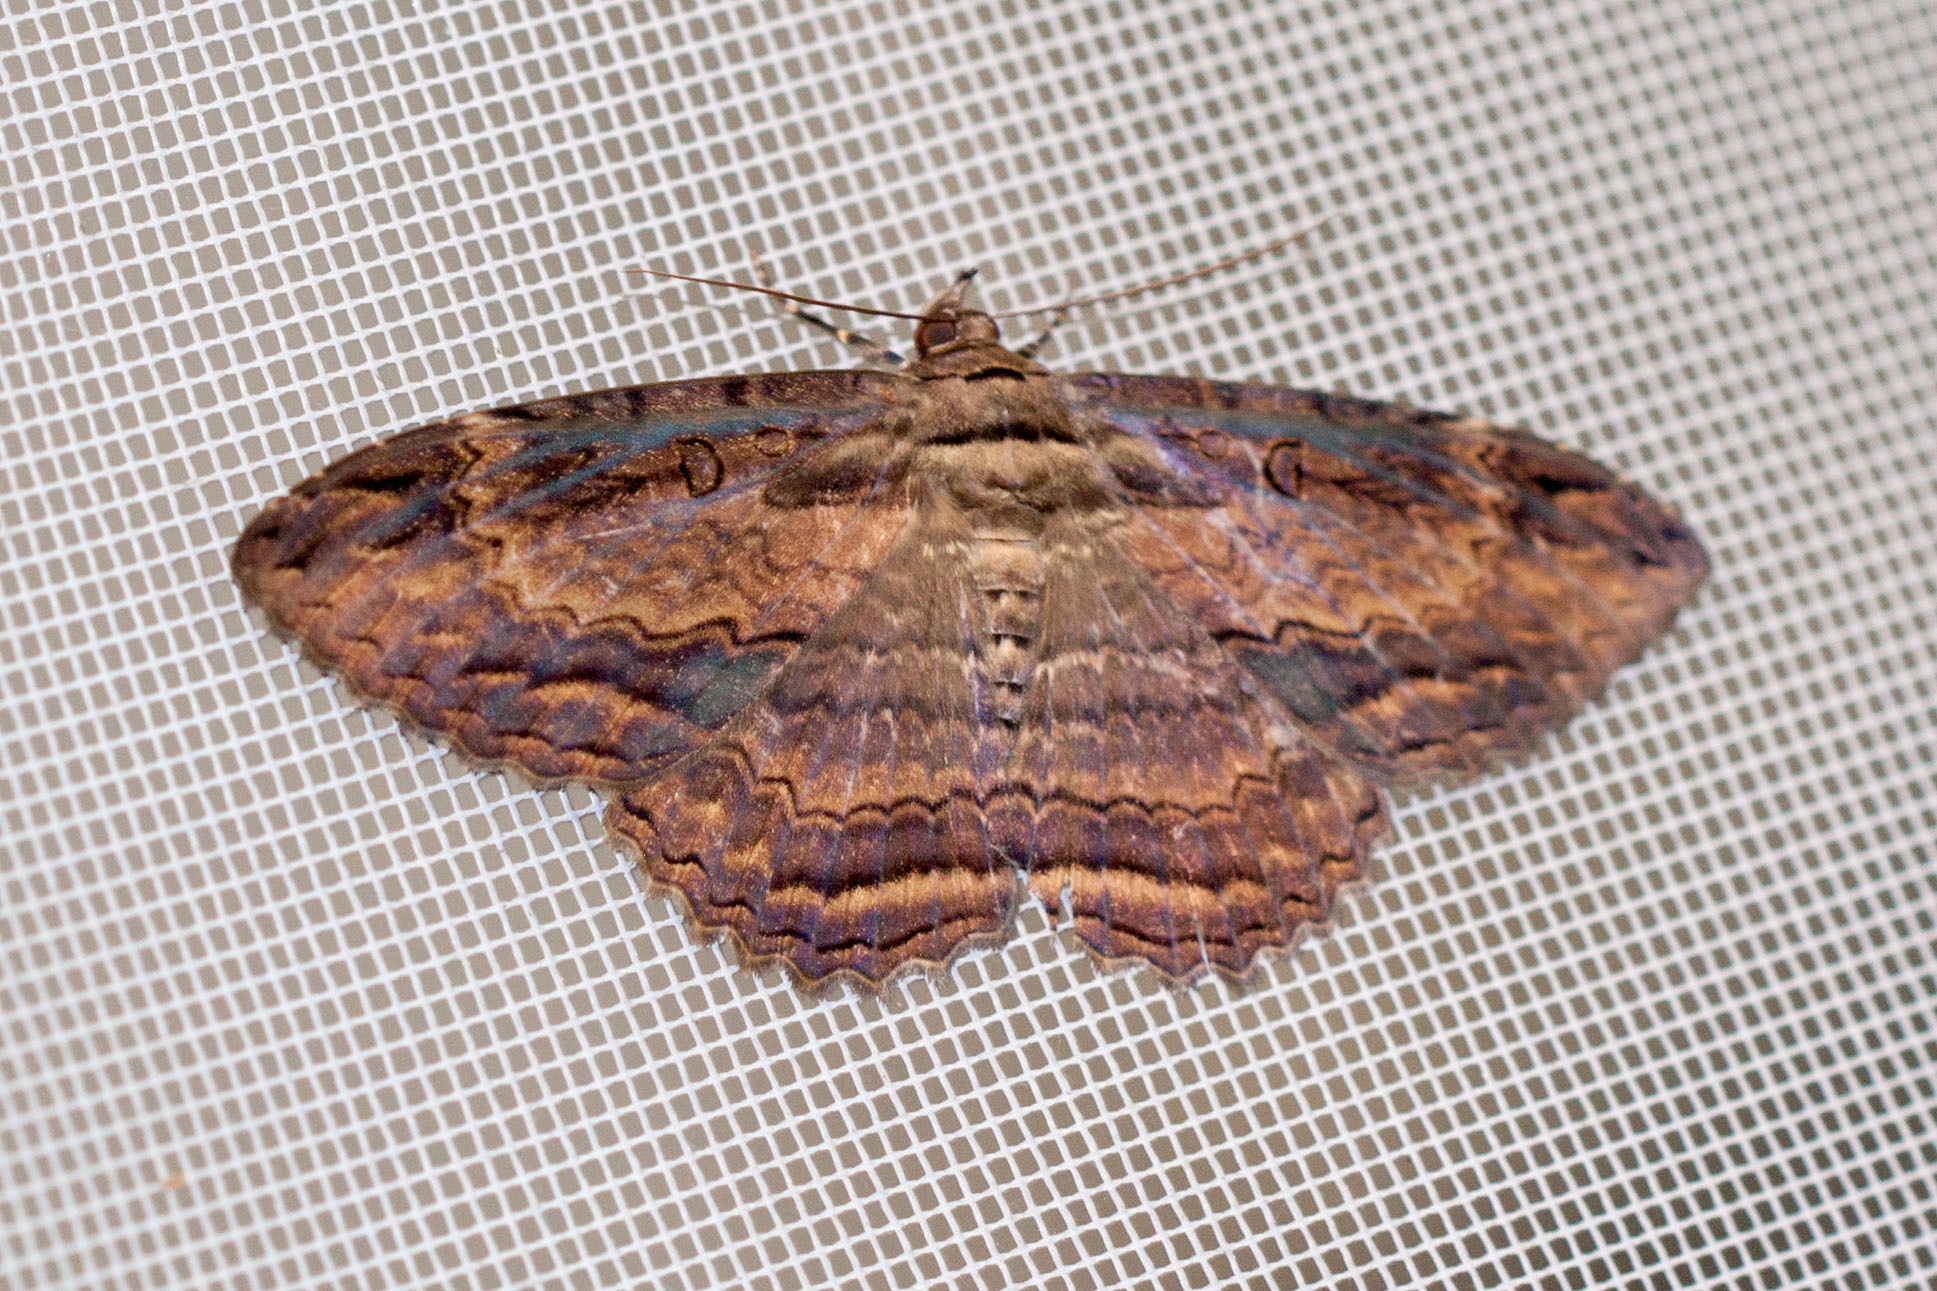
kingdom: Animalia
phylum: Arthropoda
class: Insecta
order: Lepidoptera
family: Erebidae
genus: Feigeria
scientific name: Feigeria buteo
